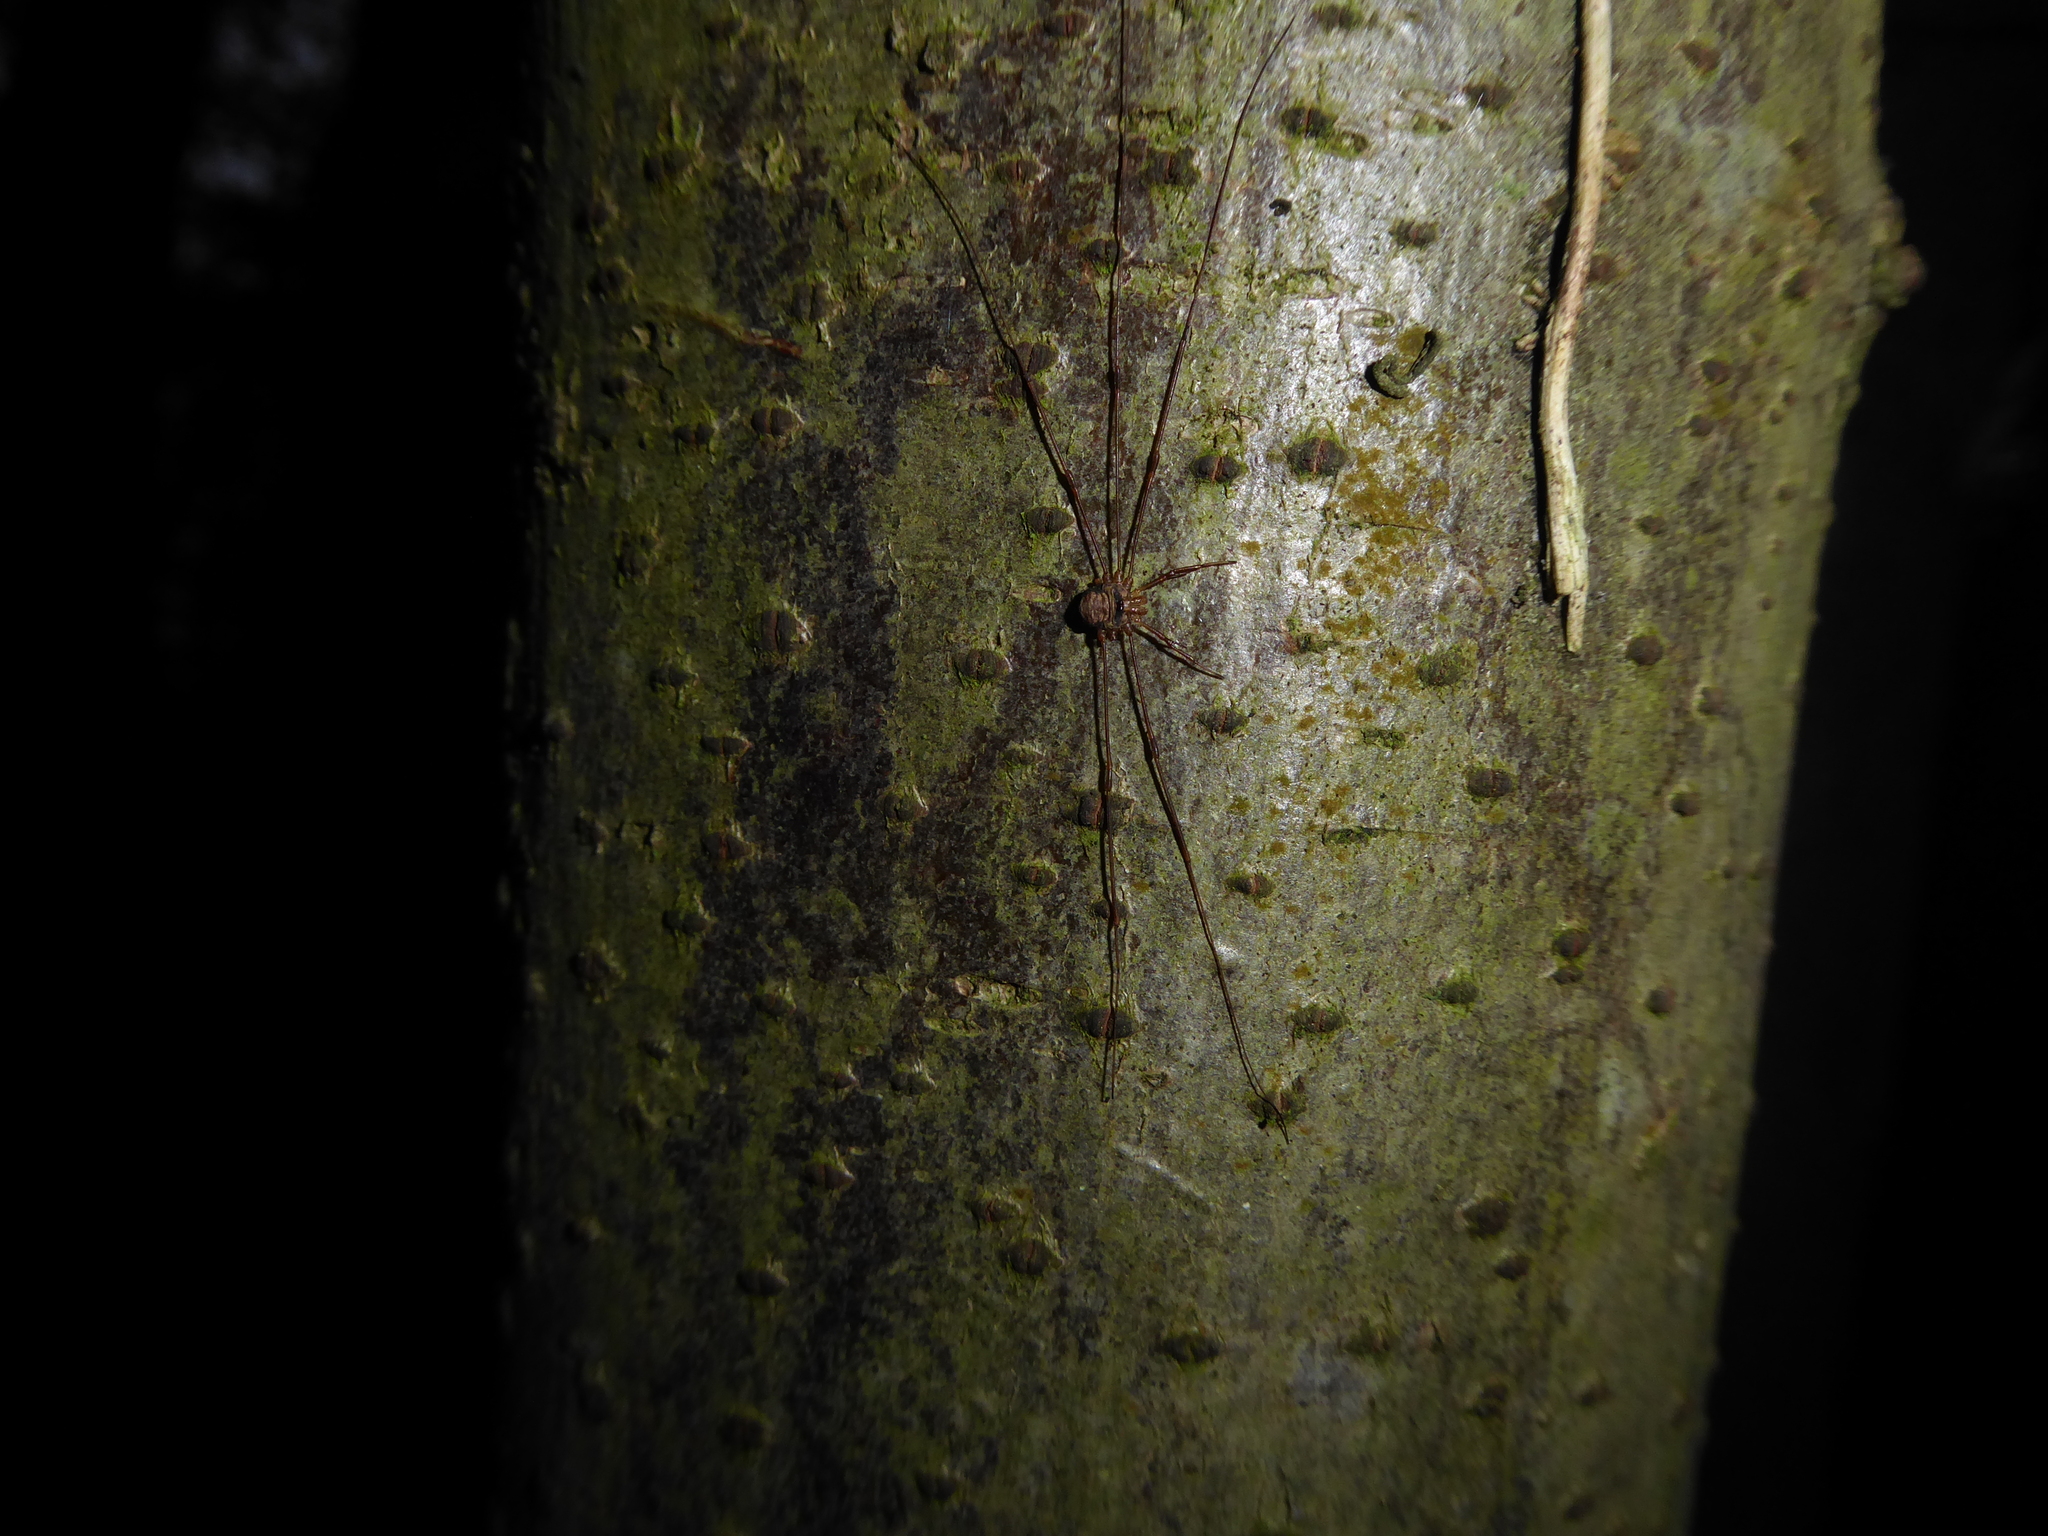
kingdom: Animalia
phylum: Arthropoda
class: Arachnida
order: Opiliones
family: Phalangiidae
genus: Dicranopalpus
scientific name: Dicranopalpus
